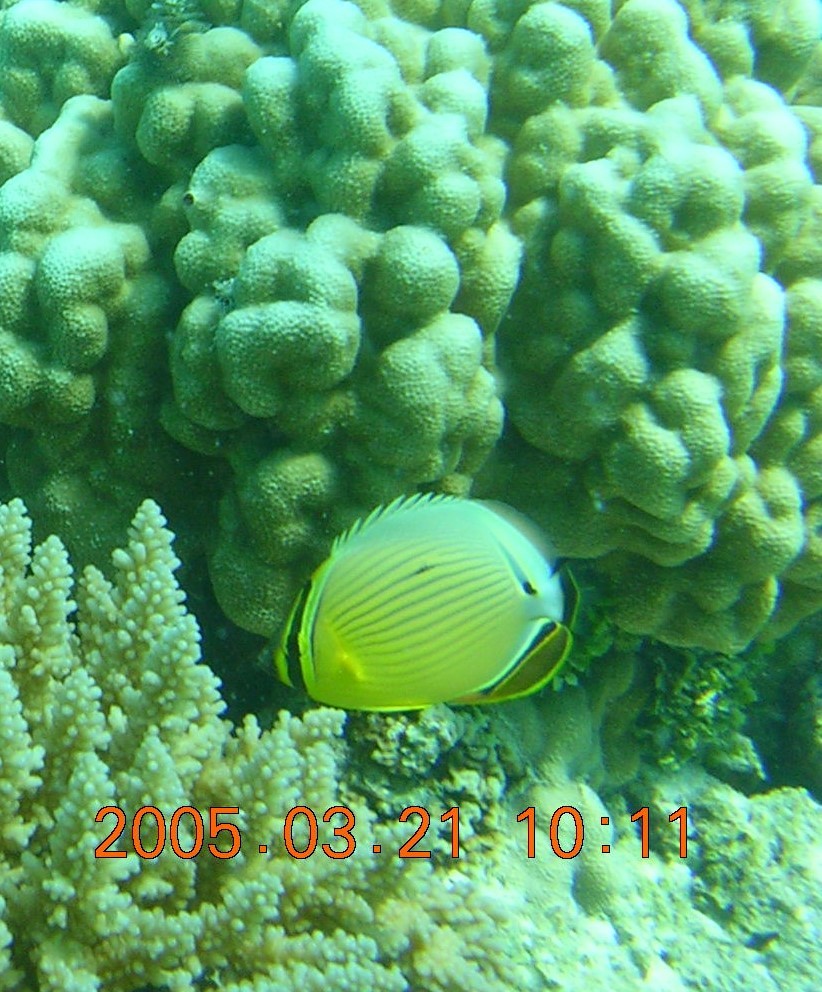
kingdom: Animalia
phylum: Chordata
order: Perciformes
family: Chaetodontidae
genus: Chaetodon
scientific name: Chaetodon lunulatus
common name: Redfin butterflyfish
